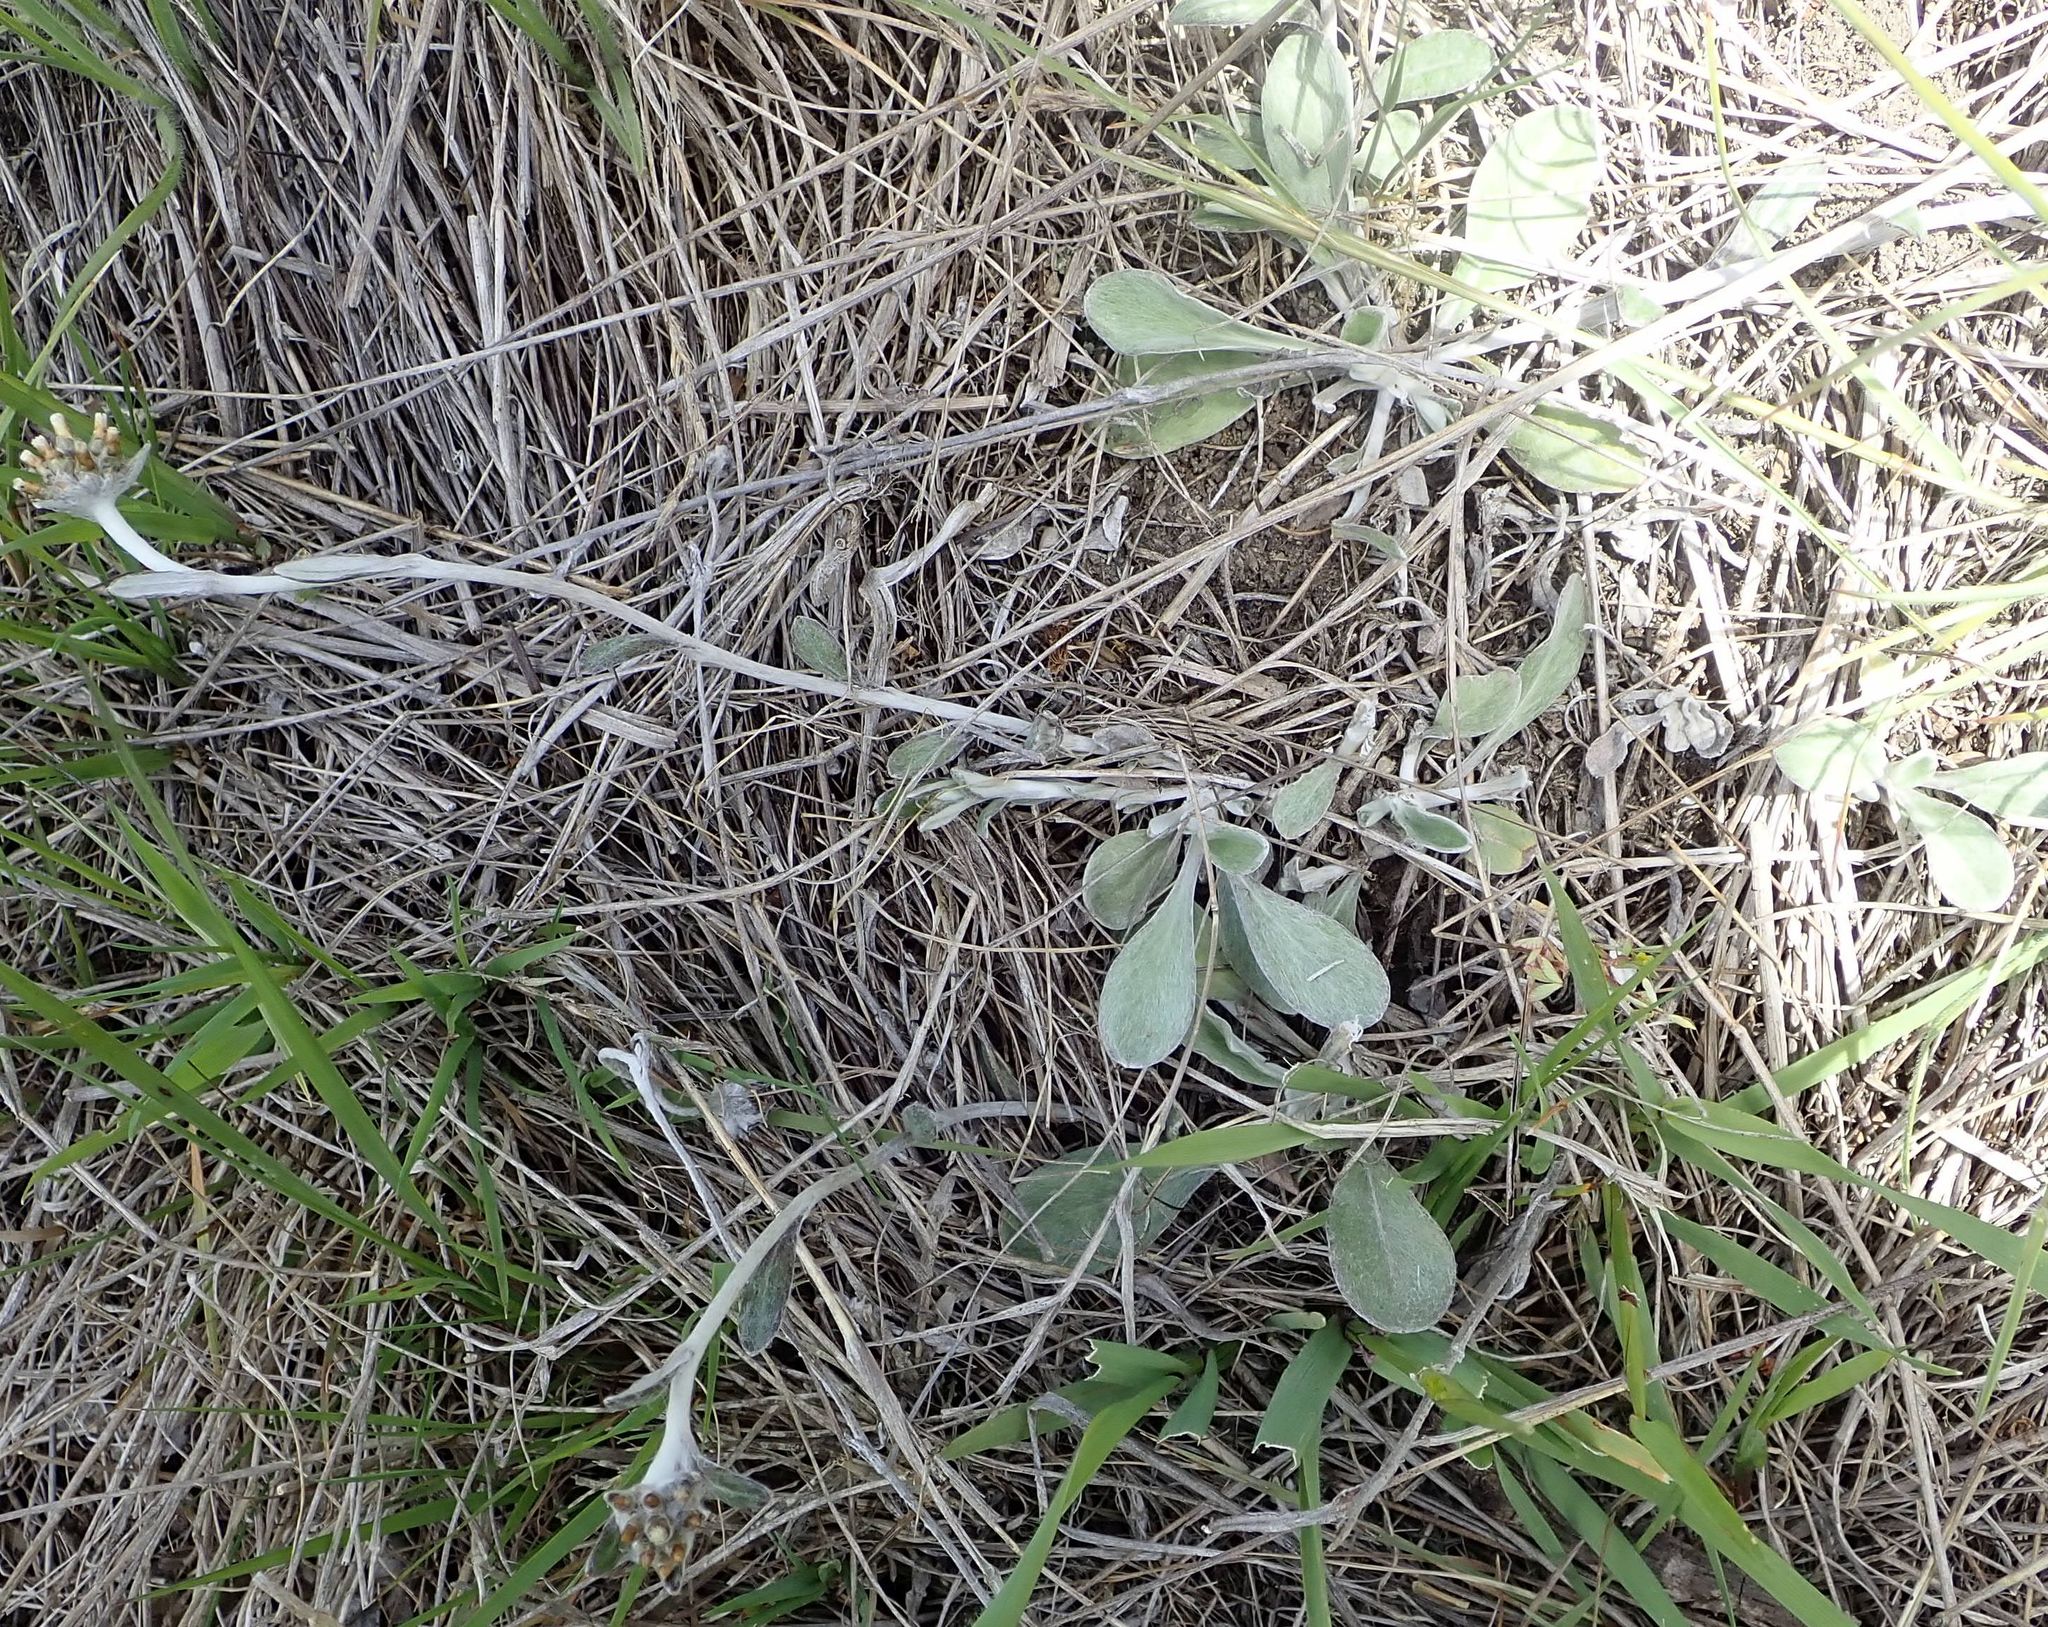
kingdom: Plantae
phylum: Tracheophyta
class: Magnoliopsida
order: Asterales
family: Asteraceae
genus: Helichrysum
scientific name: Helichrysum luteoalbum
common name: Daisy
